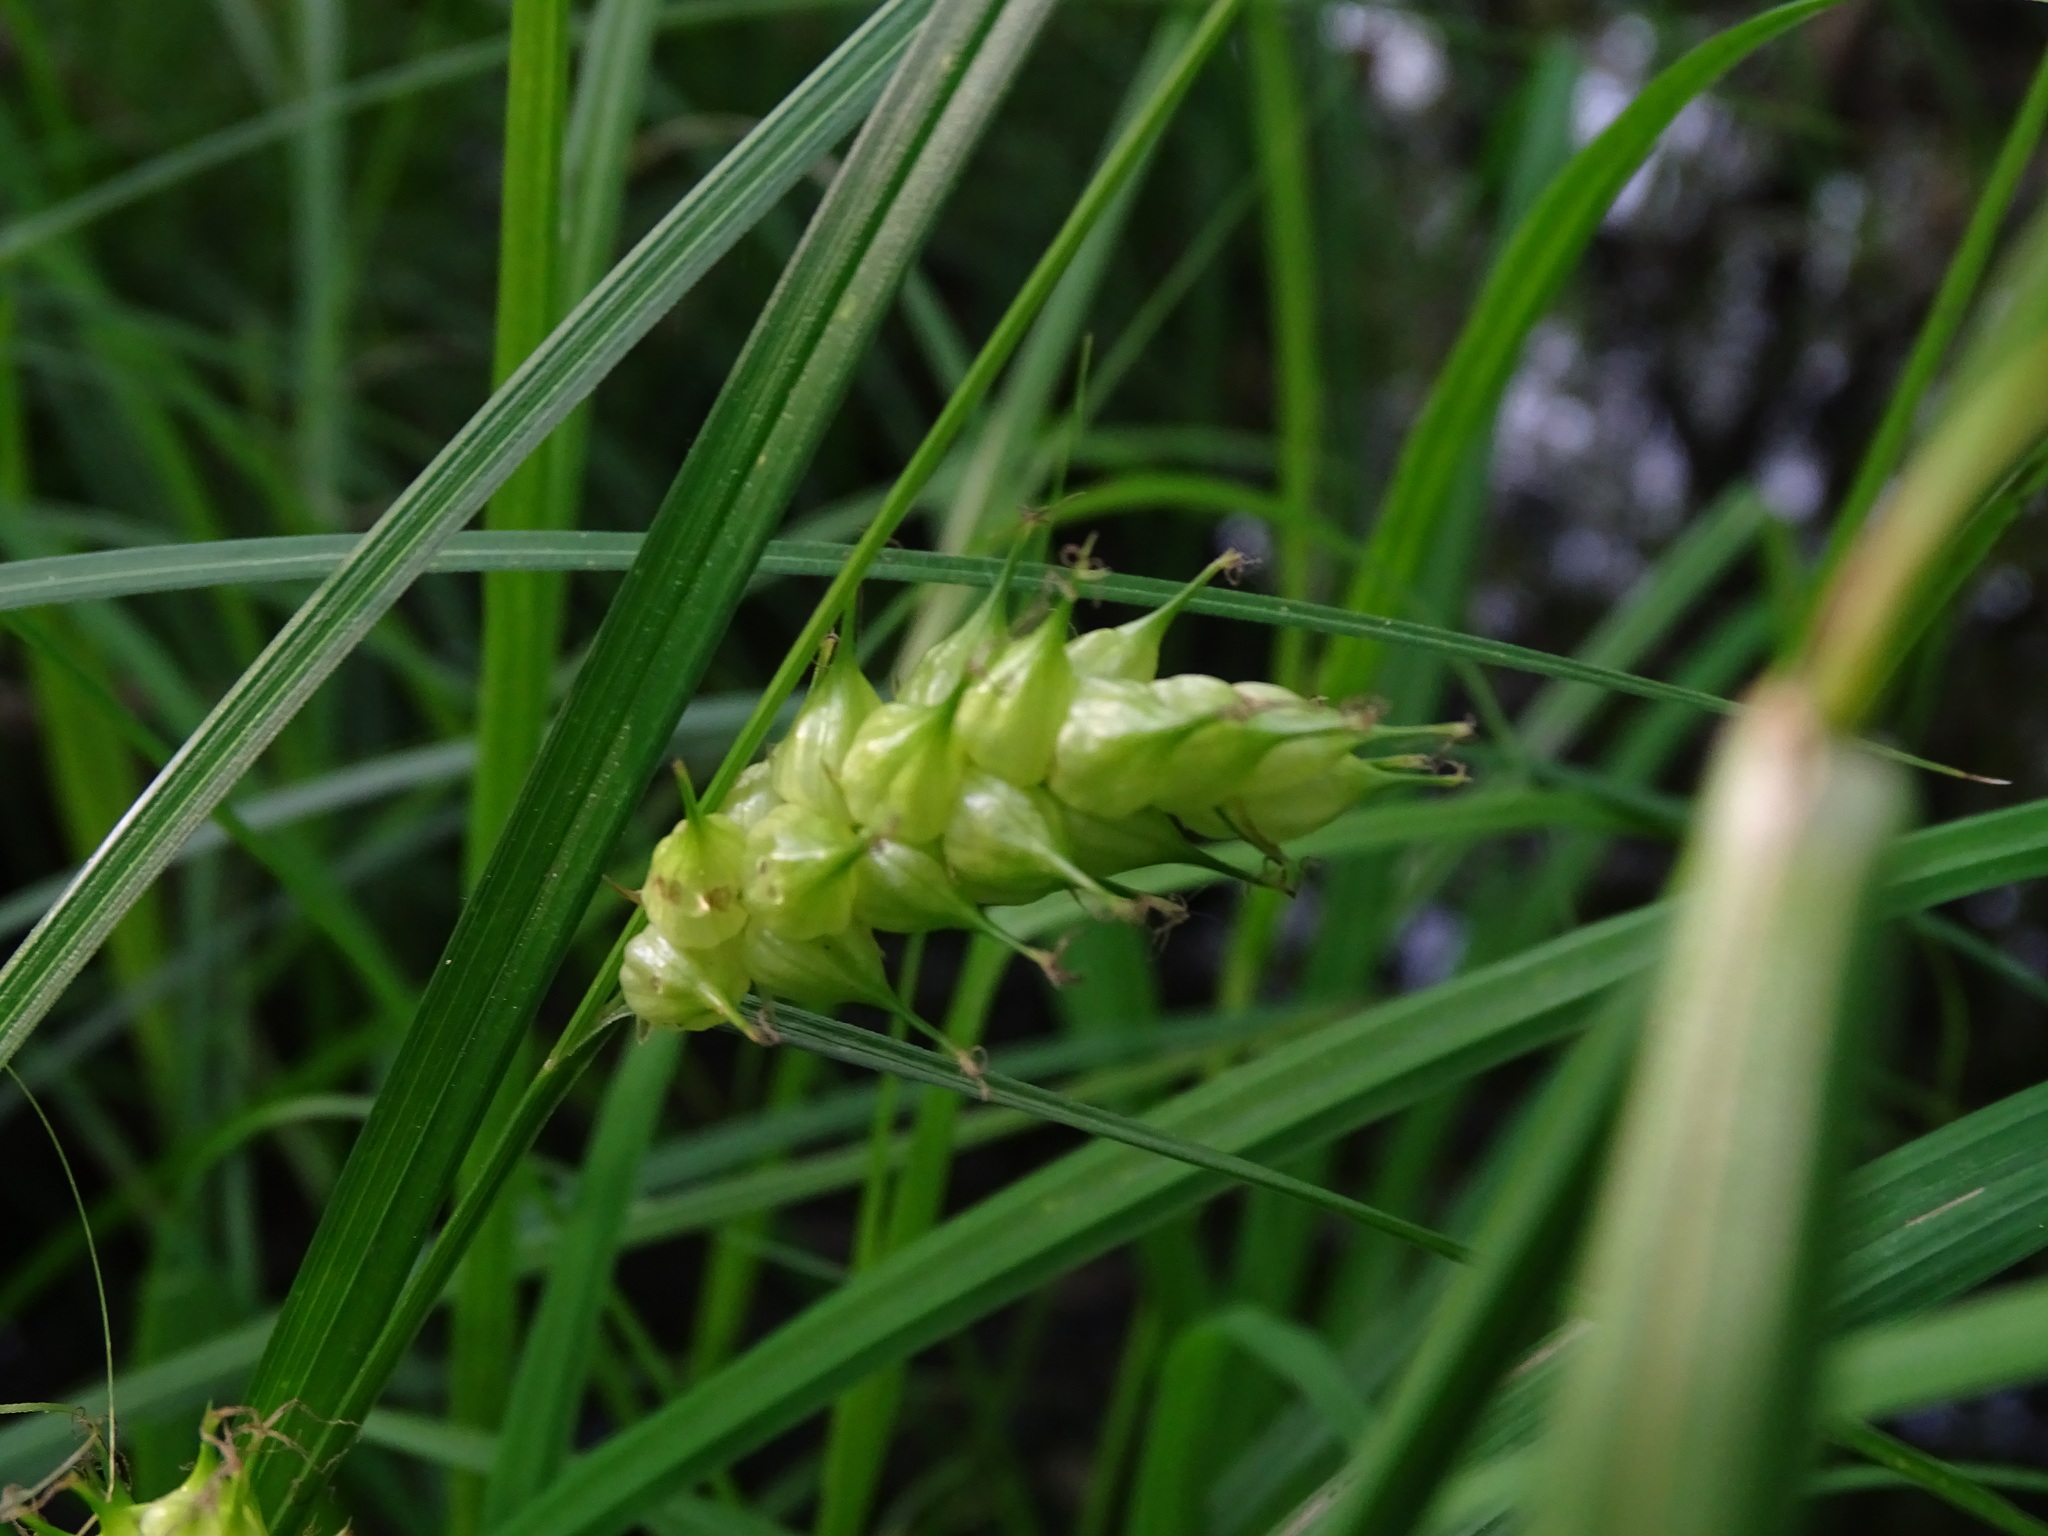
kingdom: Plantae
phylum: Tracheophyta
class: Liliopsida
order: Poales
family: Cyperaceae
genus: Carex
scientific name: Carex tuckermanii
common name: Tuckerman's sedge
